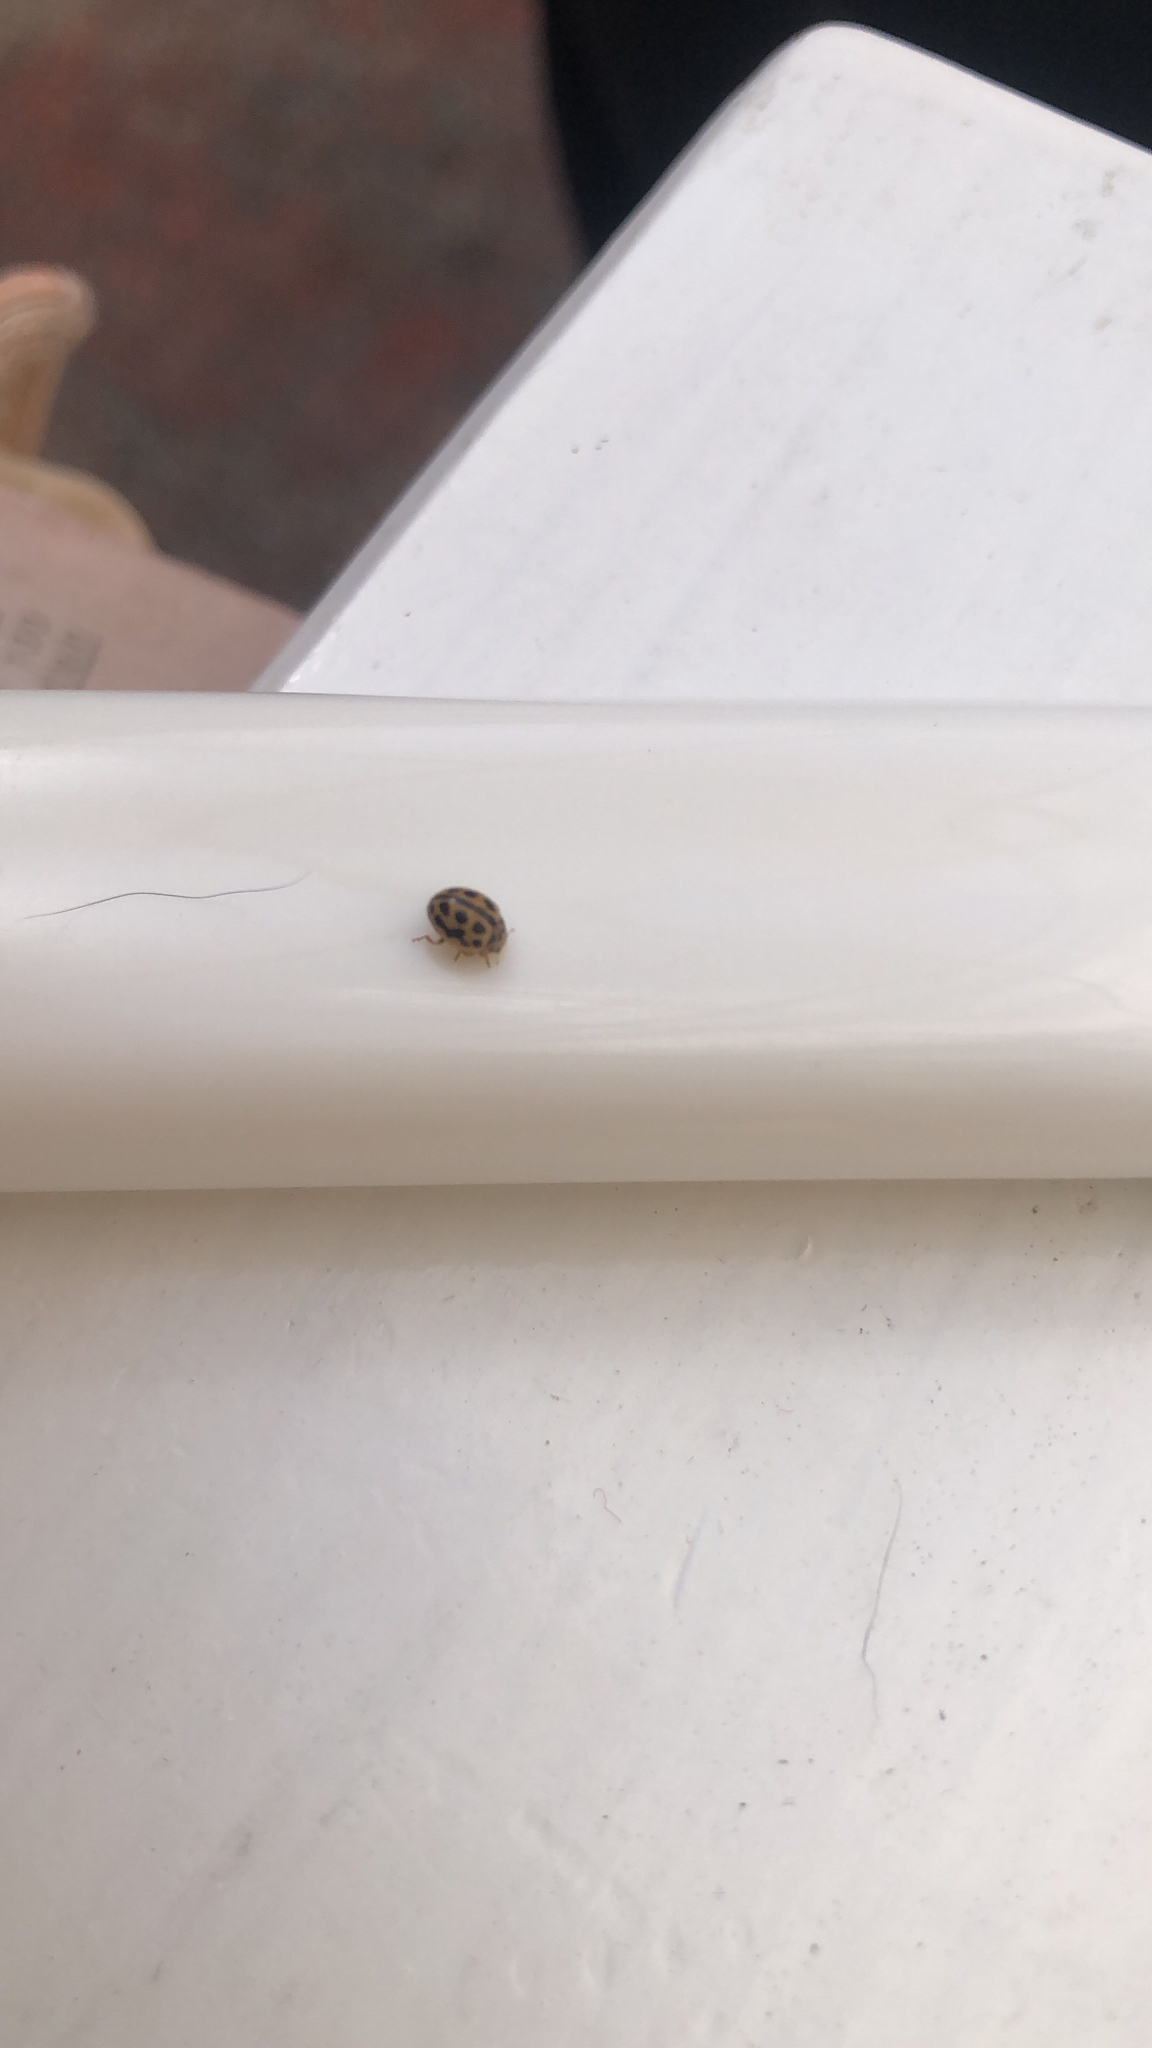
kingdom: Animalia
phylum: Arthropoda
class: Insecta
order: Coleoptera
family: Coccinellidae
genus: Tytthaspis
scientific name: Tytthaspis sedecimpunctata
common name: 16-spot ladybird
